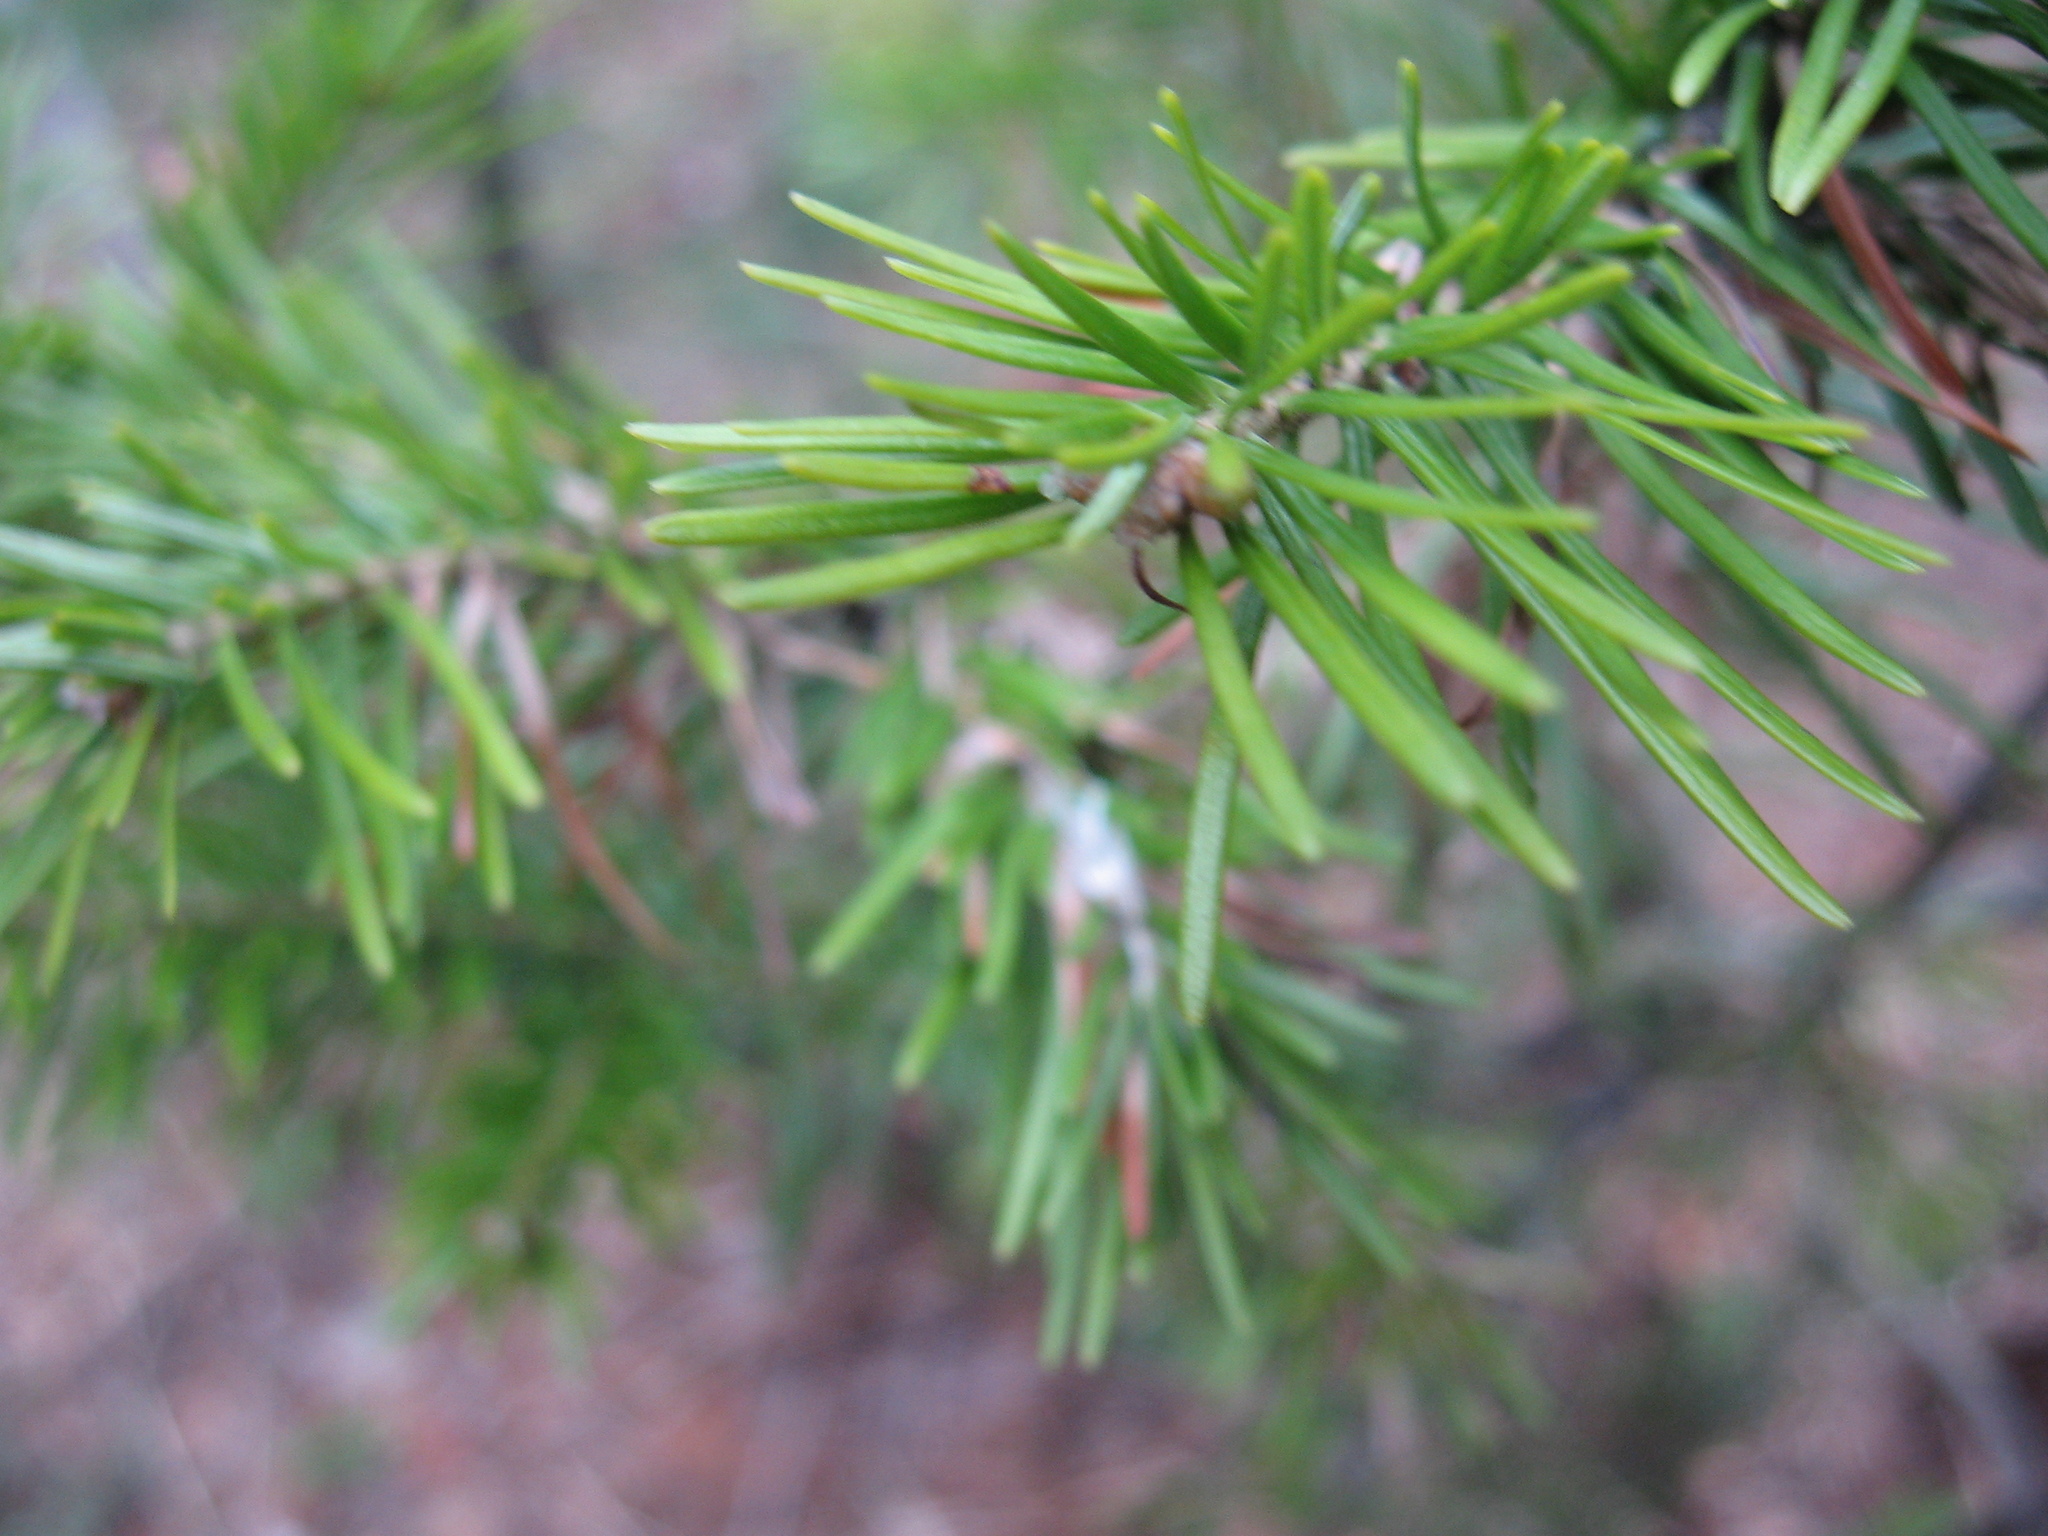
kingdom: Plantae
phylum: Tracheophyta
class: Pinopsida
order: Pinales
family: Pinaceae
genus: Abies
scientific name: Abies sibirica
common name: Siberian fir
